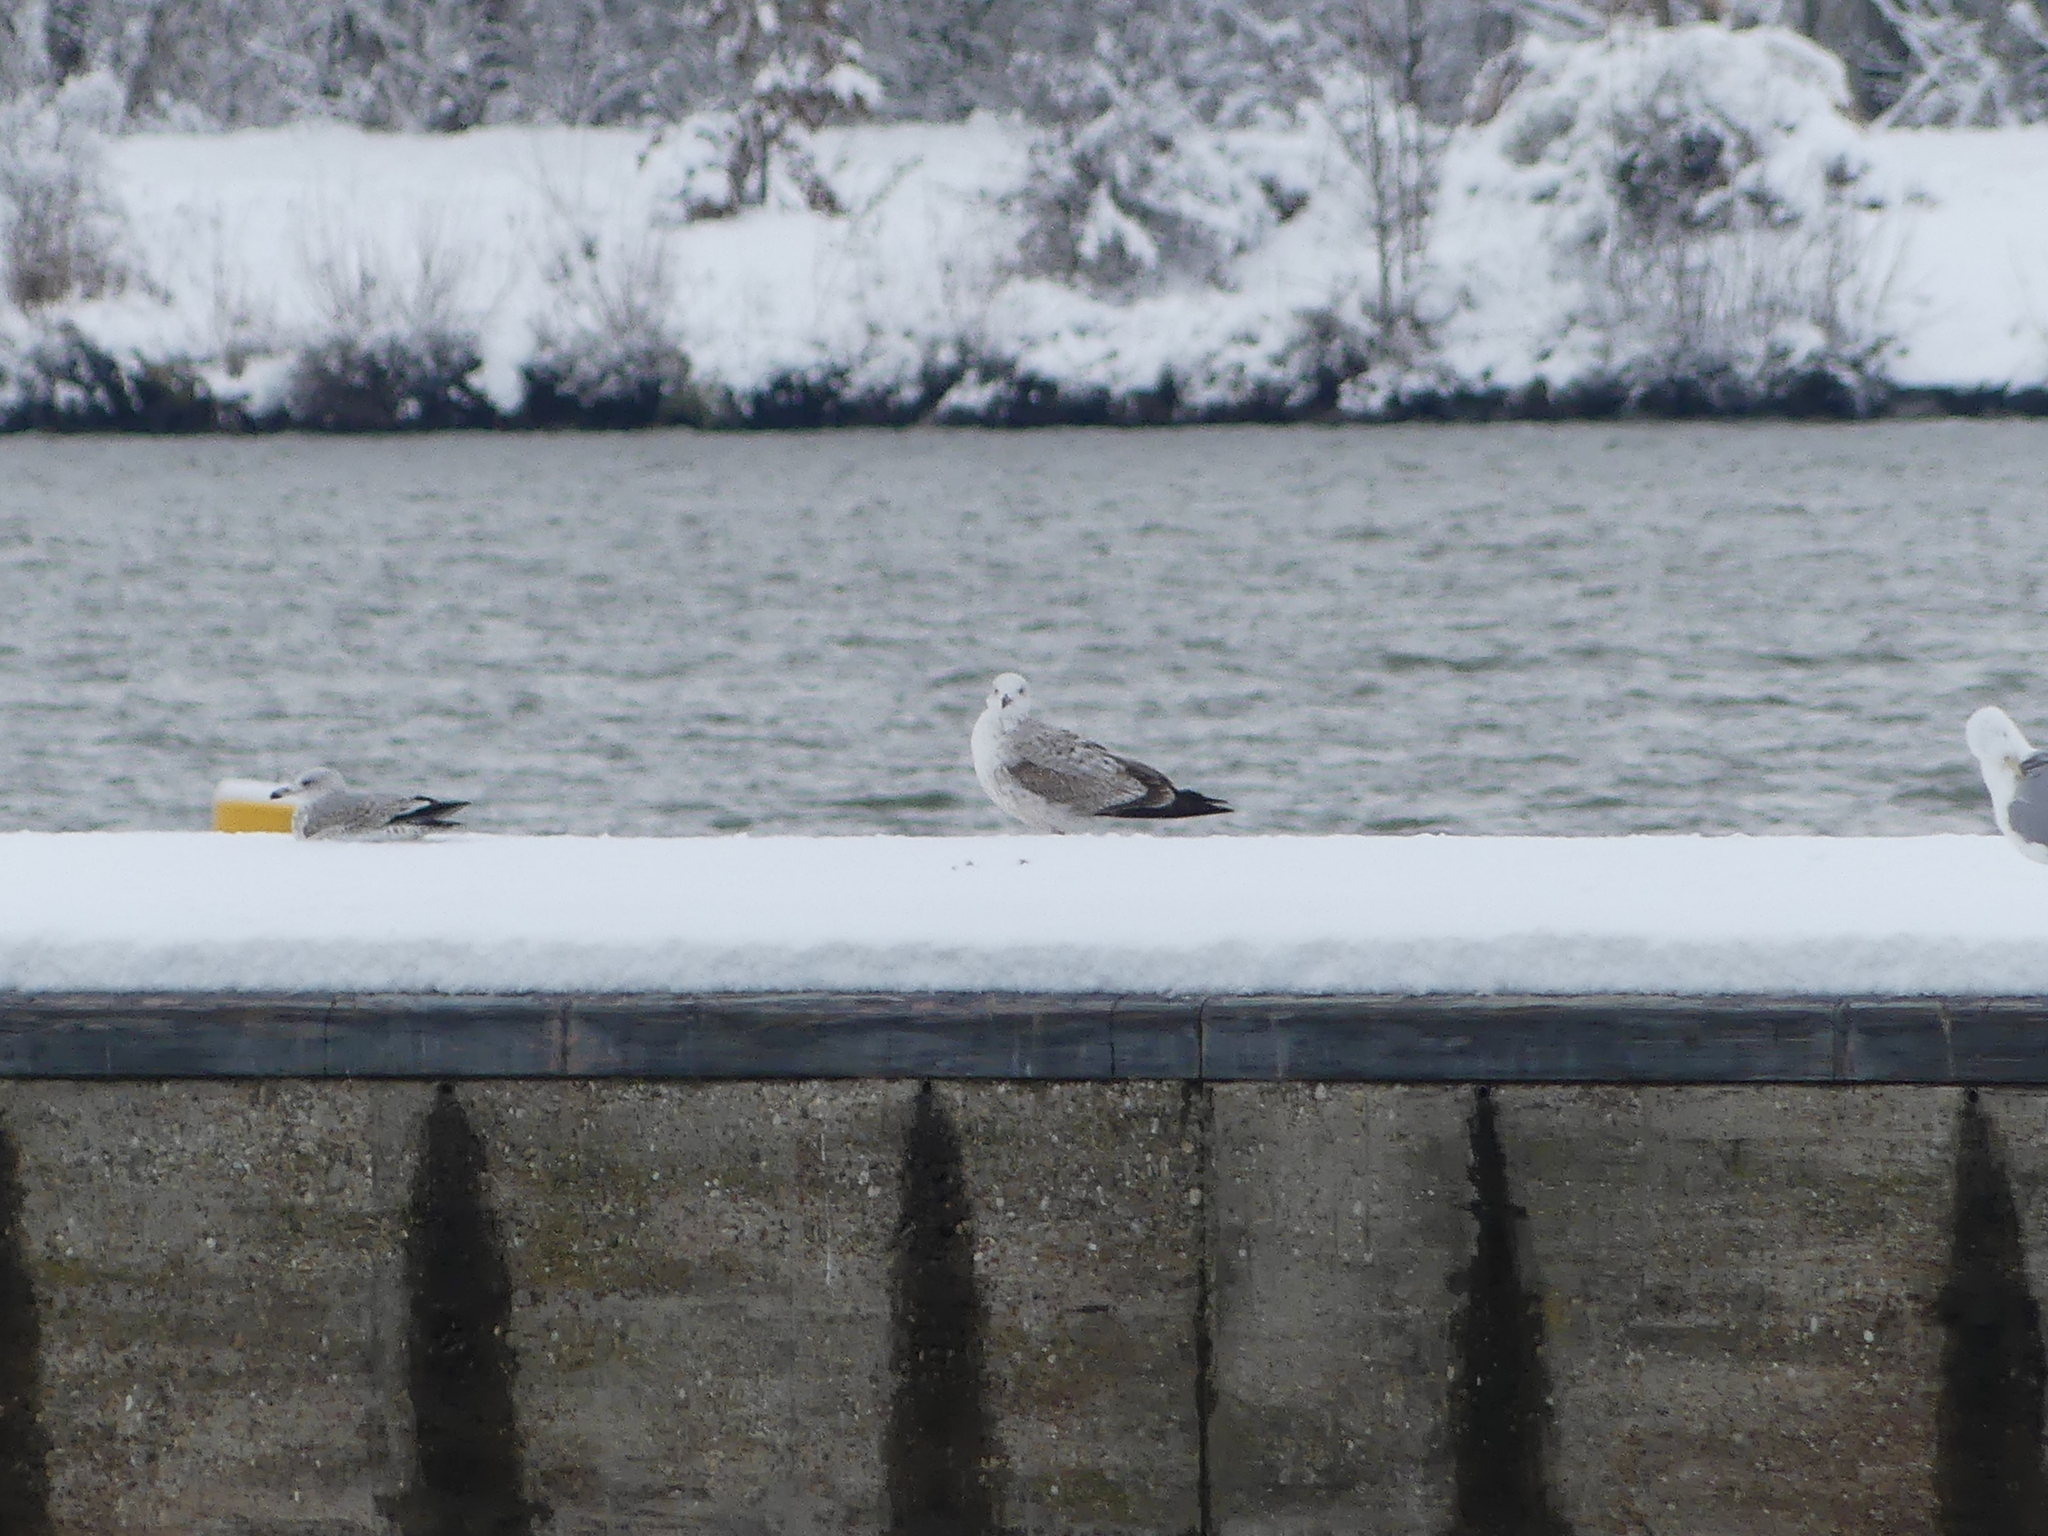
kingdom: Animalia
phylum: Chordata
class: Aves
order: Charadriiformes
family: Laridae
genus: Larus
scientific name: Larus cachinnans
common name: Caspian gull
